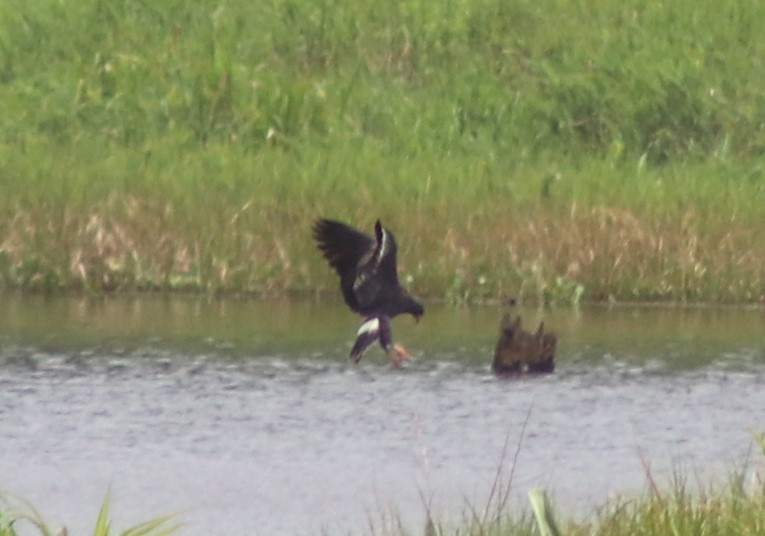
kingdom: Animalia
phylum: Chordata
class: Aves
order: Accipitriformes
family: Accipitridae
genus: Rostrhamus
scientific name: Rostrhamus sociabilis
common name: Snail kite
